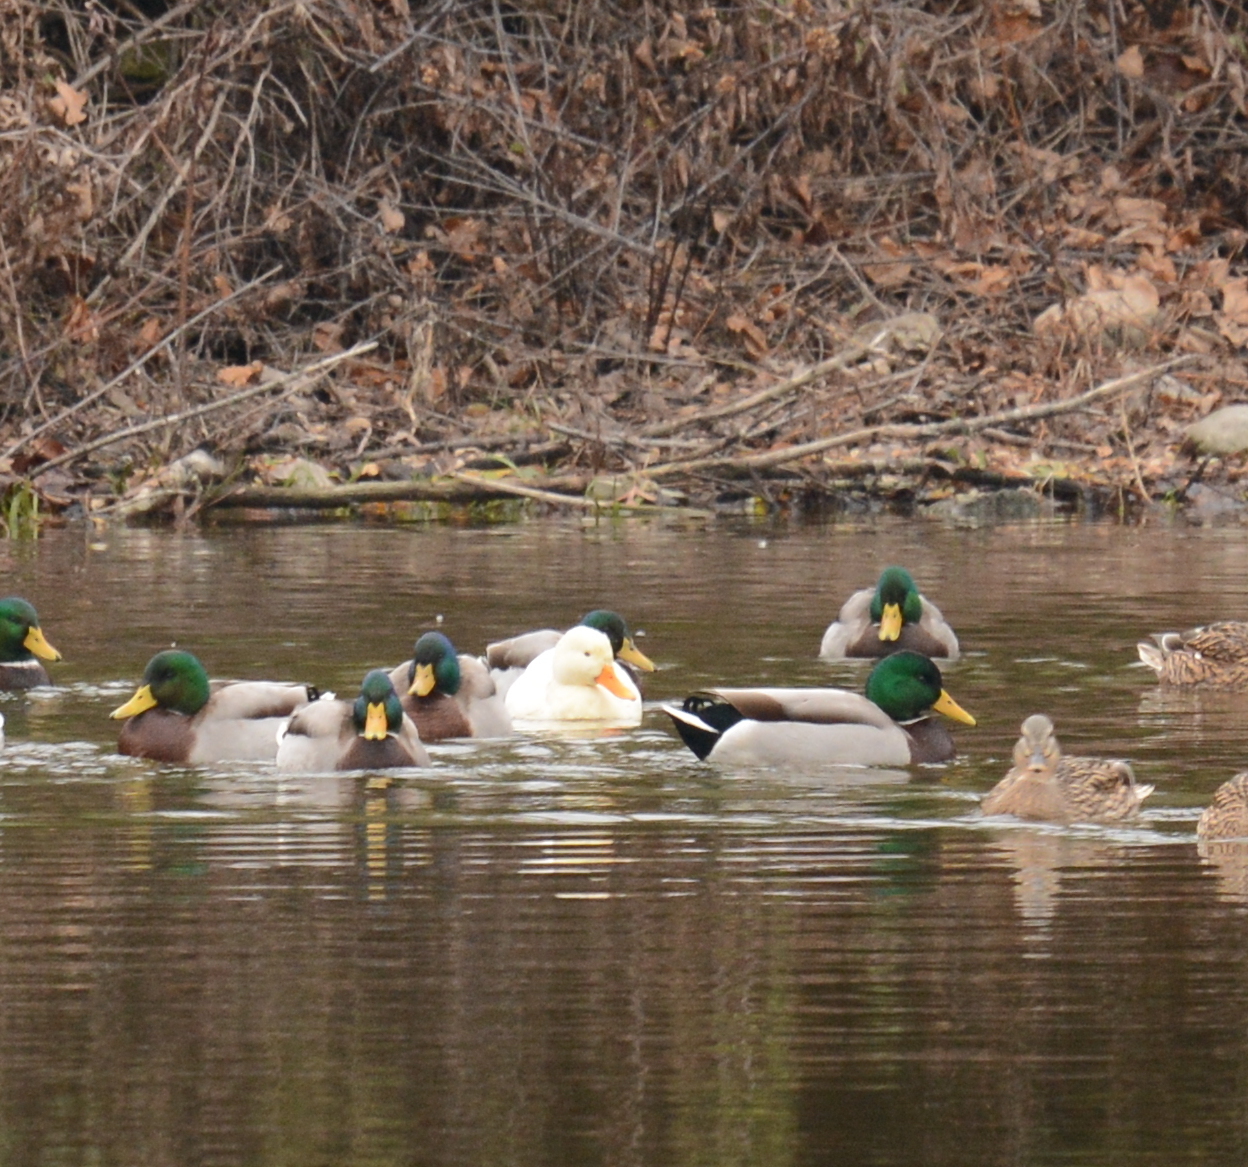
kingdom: Animalia
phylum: Chordata
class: Aves
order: Anseriformes
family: Anatidae
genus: Anas
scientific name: Anas platyrhynchos
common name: Mallard
